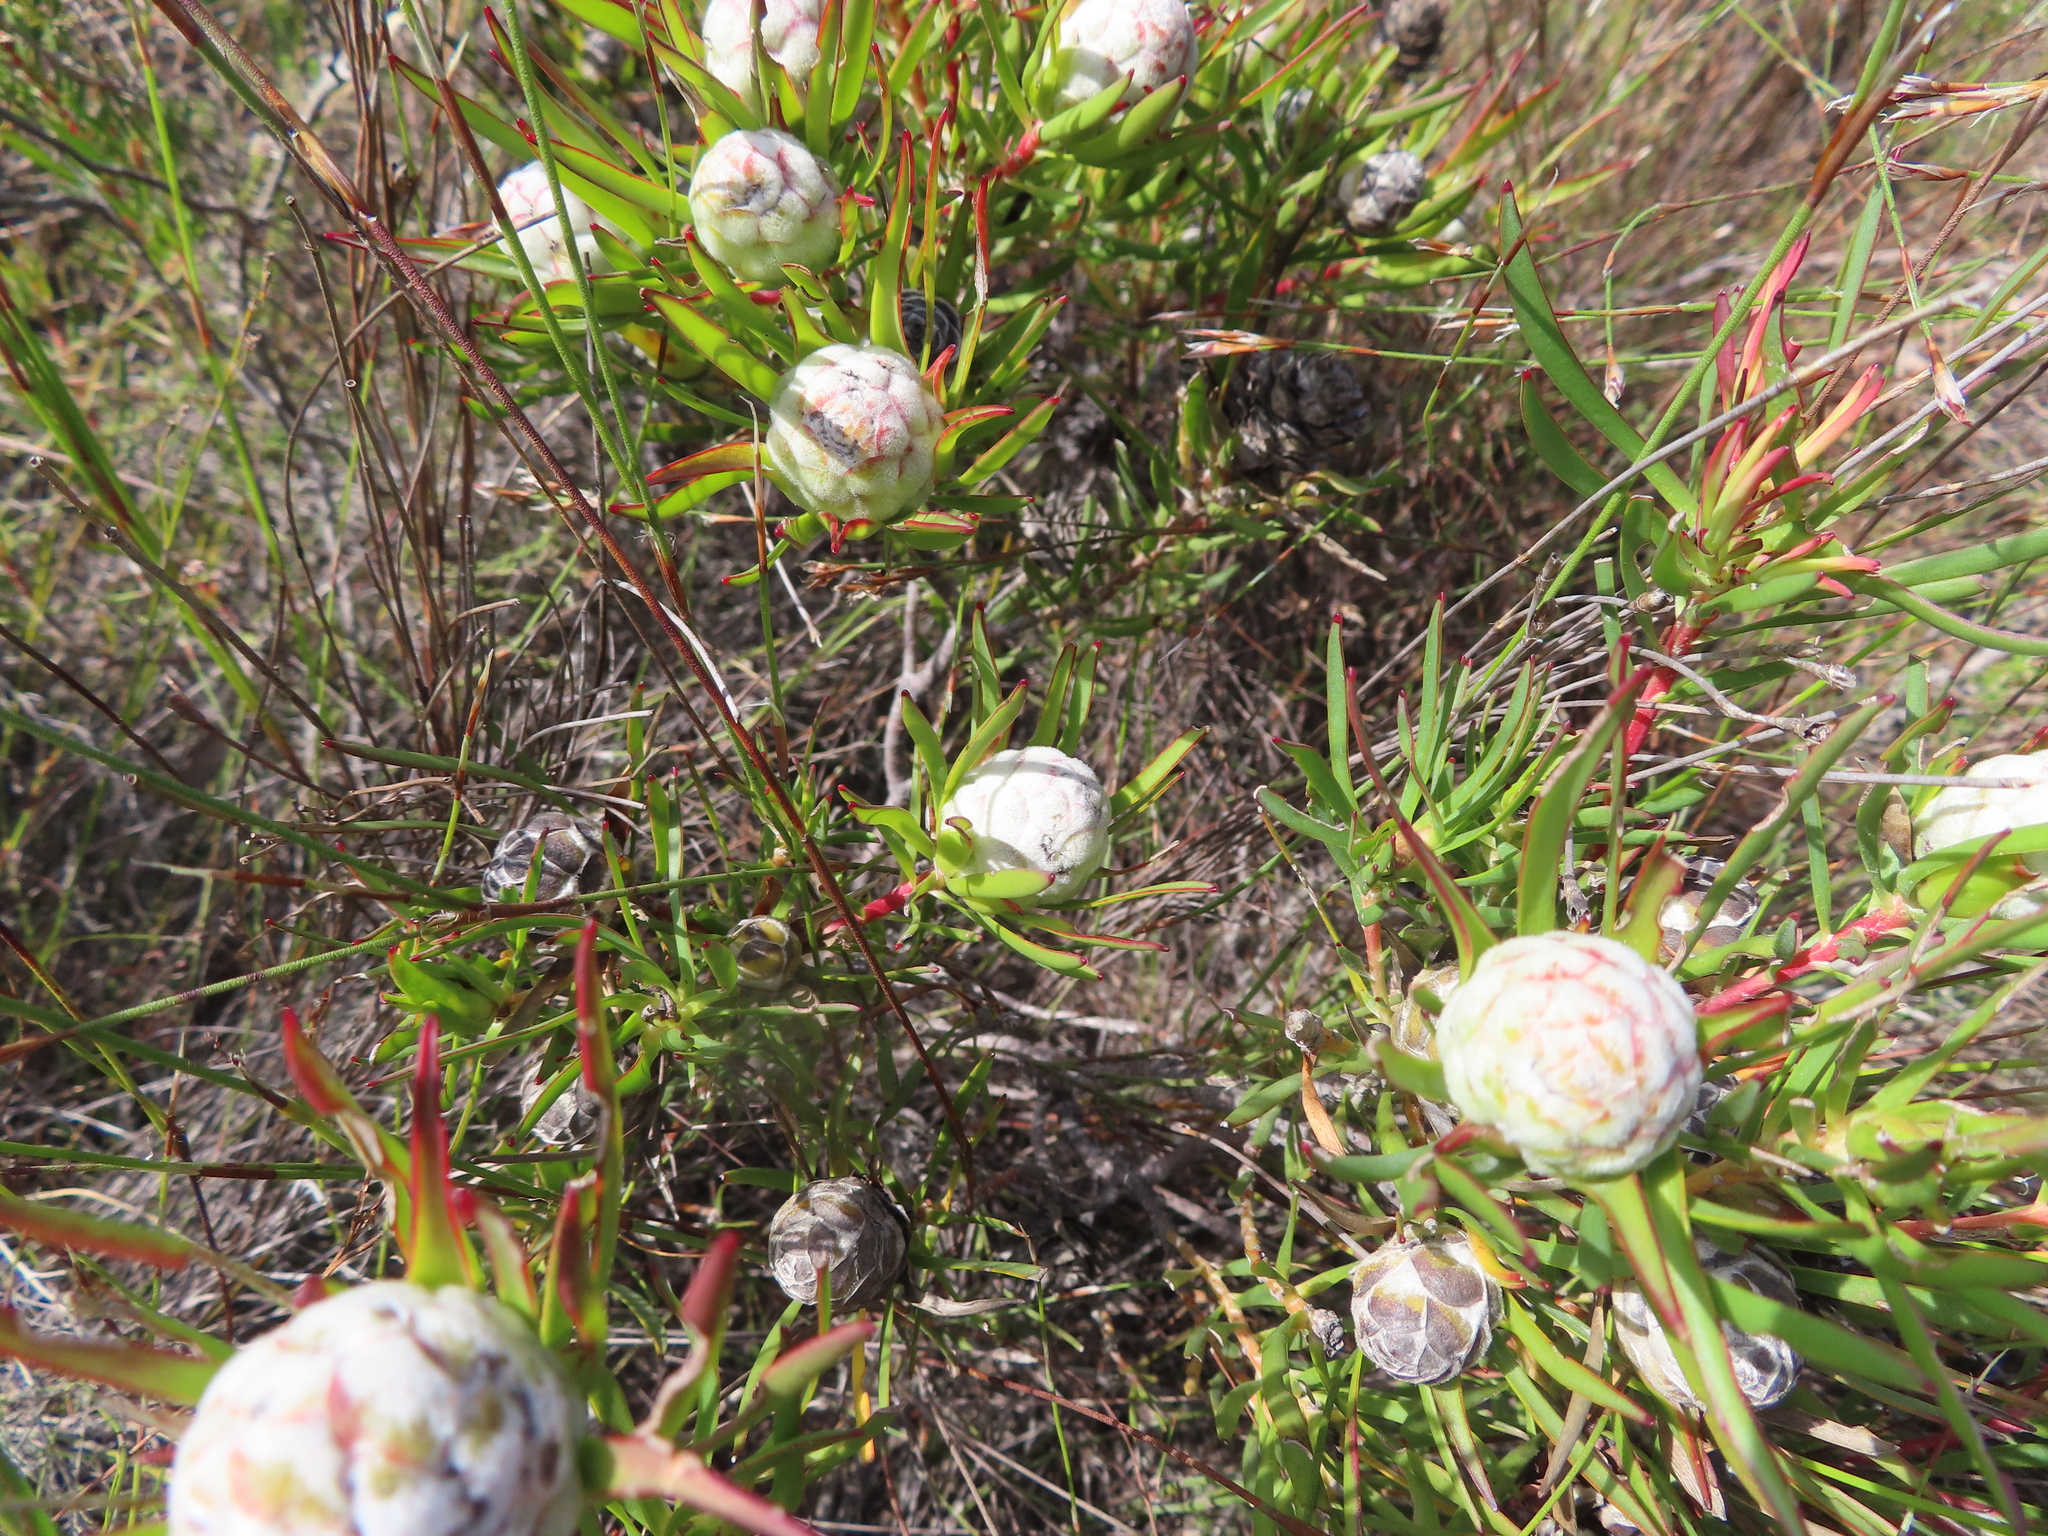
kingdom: Plantae
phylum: Tracheophyta
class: Magnoliopsida
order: Proteales
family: Proteaceae
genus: Leucadendron
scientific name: Leucadendron salignum
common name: Common sunshine conebush
